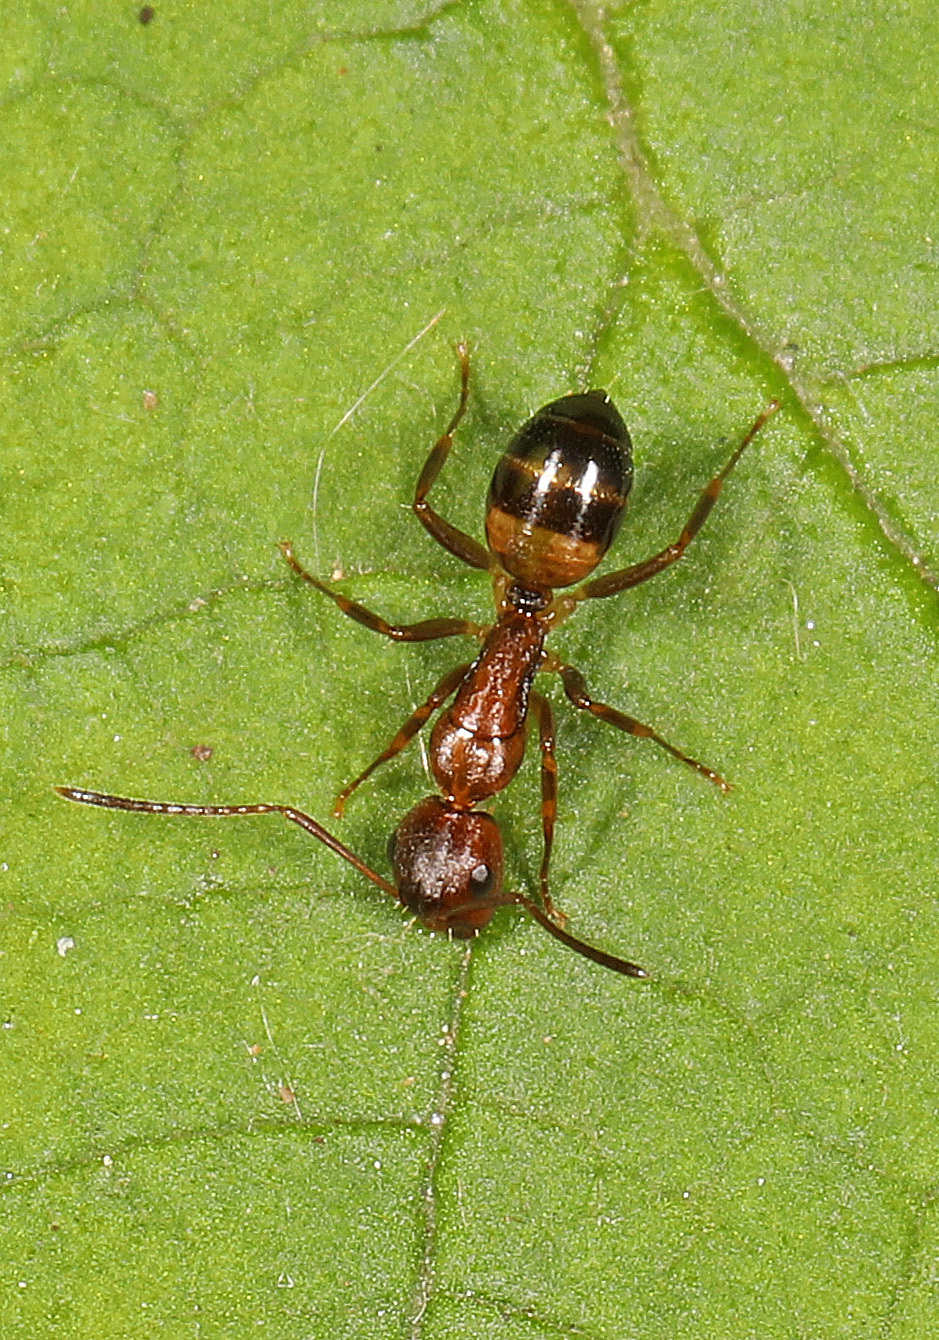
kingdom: Animalia
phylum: Arthropoda
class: Insecta
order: Hymenoptera
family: Formicidae
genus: Camponotus
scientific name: Camponotus subbarbatus
